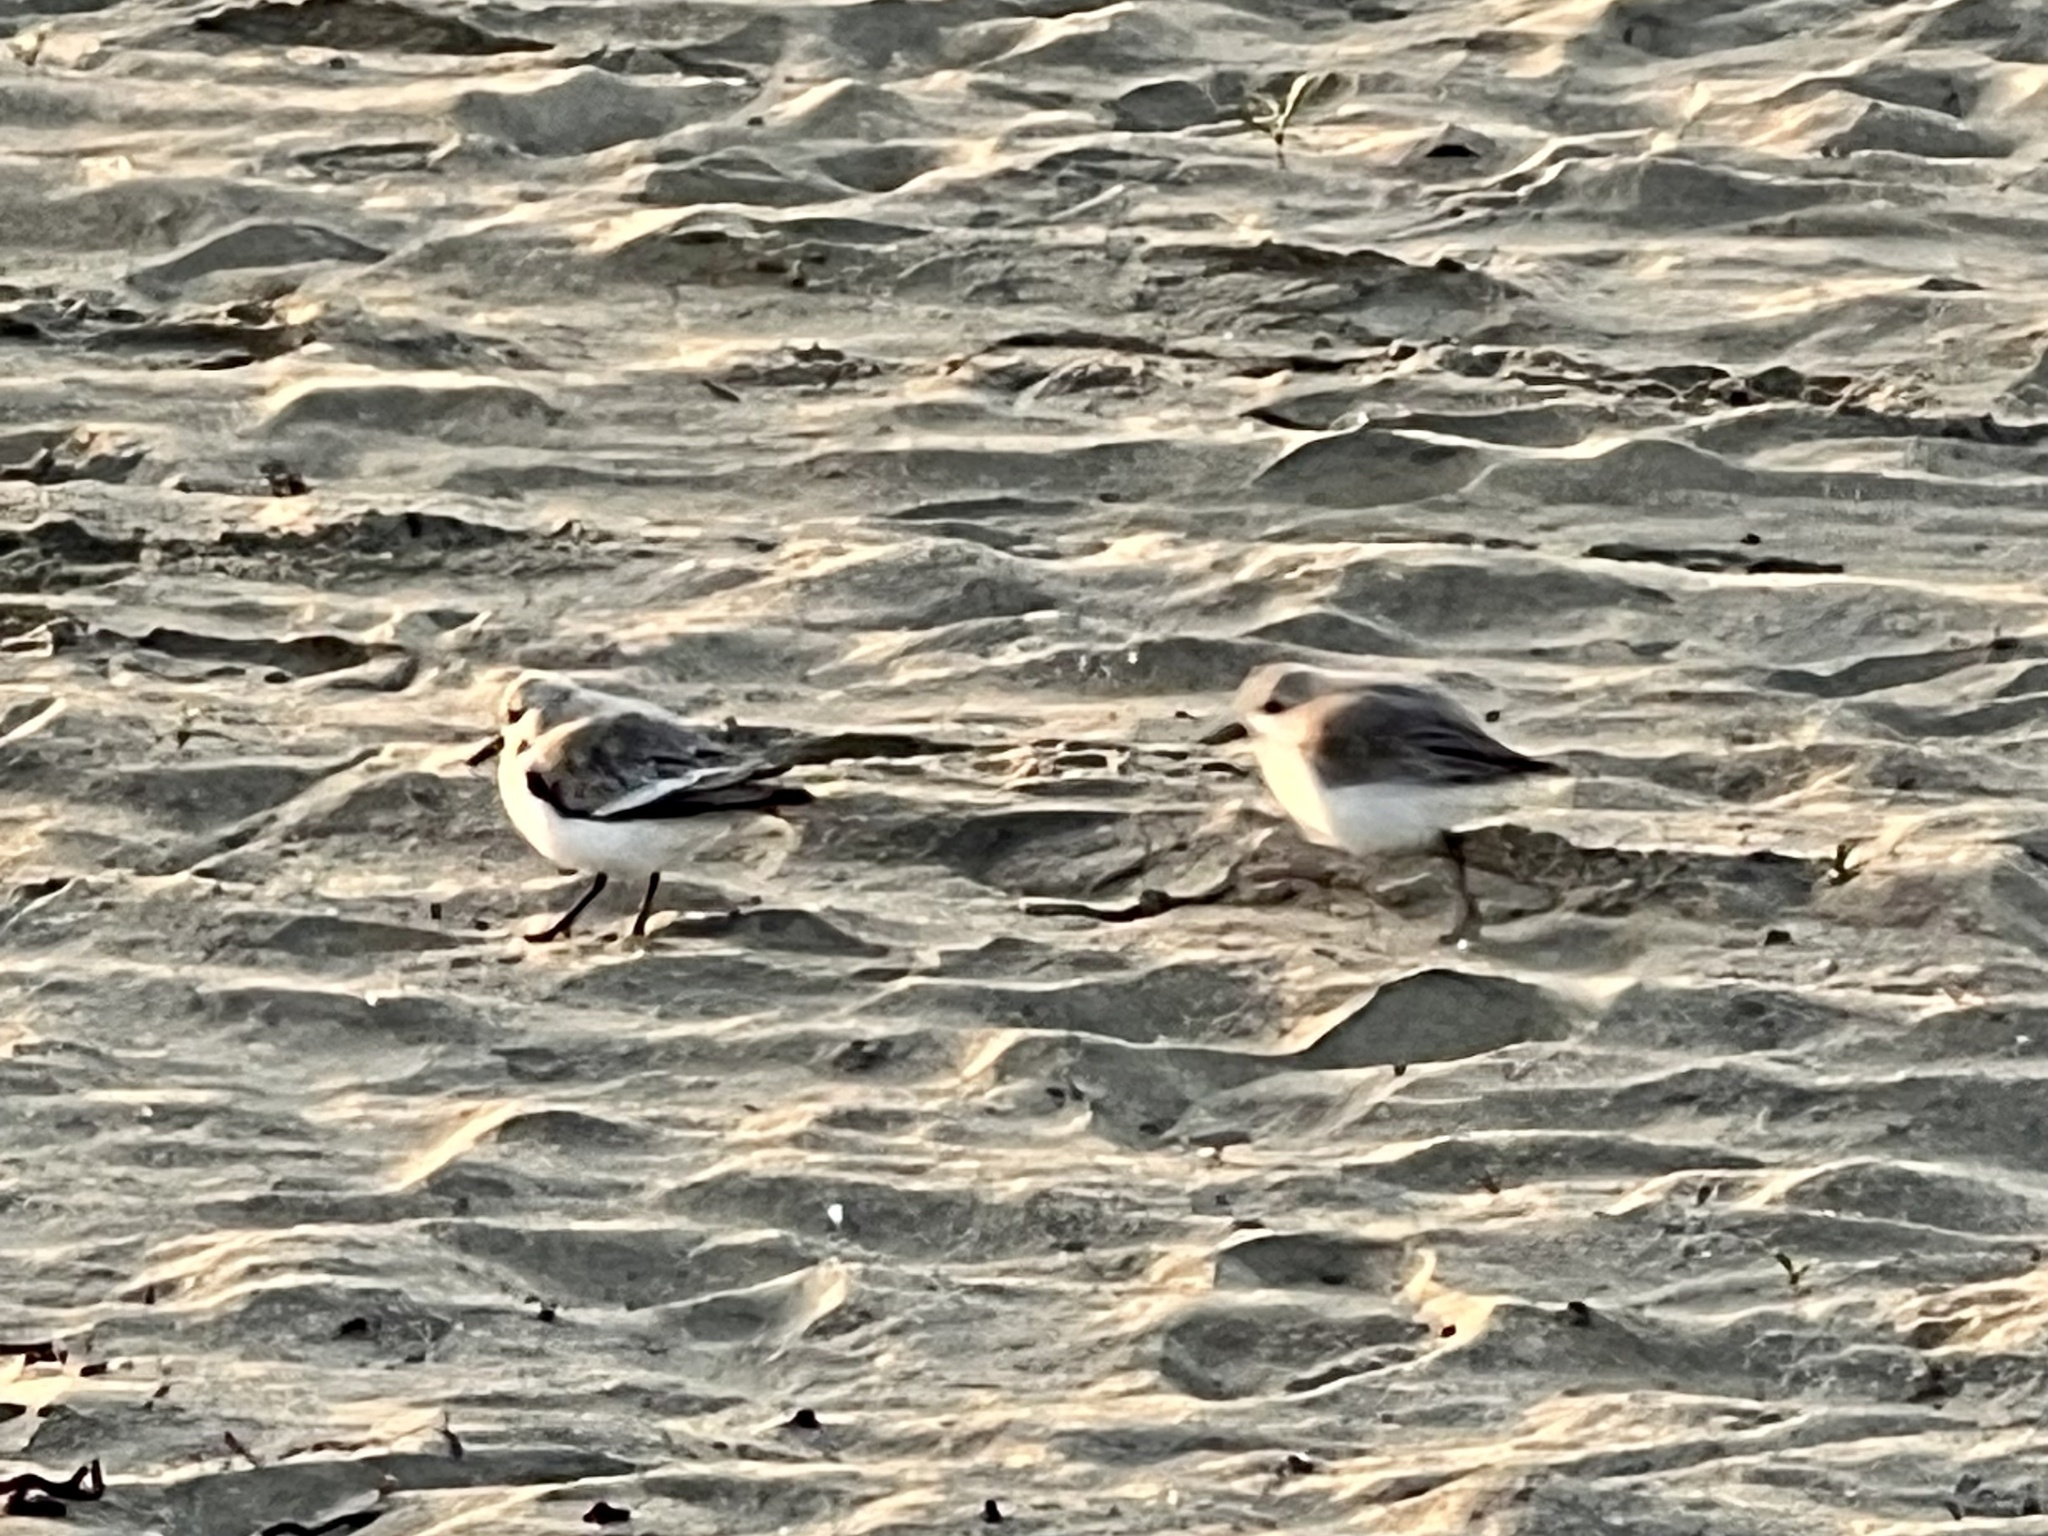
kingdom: Animalia
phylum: Chordata
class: Aves
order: Charadriiformes
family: Scolopacidae
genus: Calidris
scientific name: Calidris alba
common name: Sanderling
